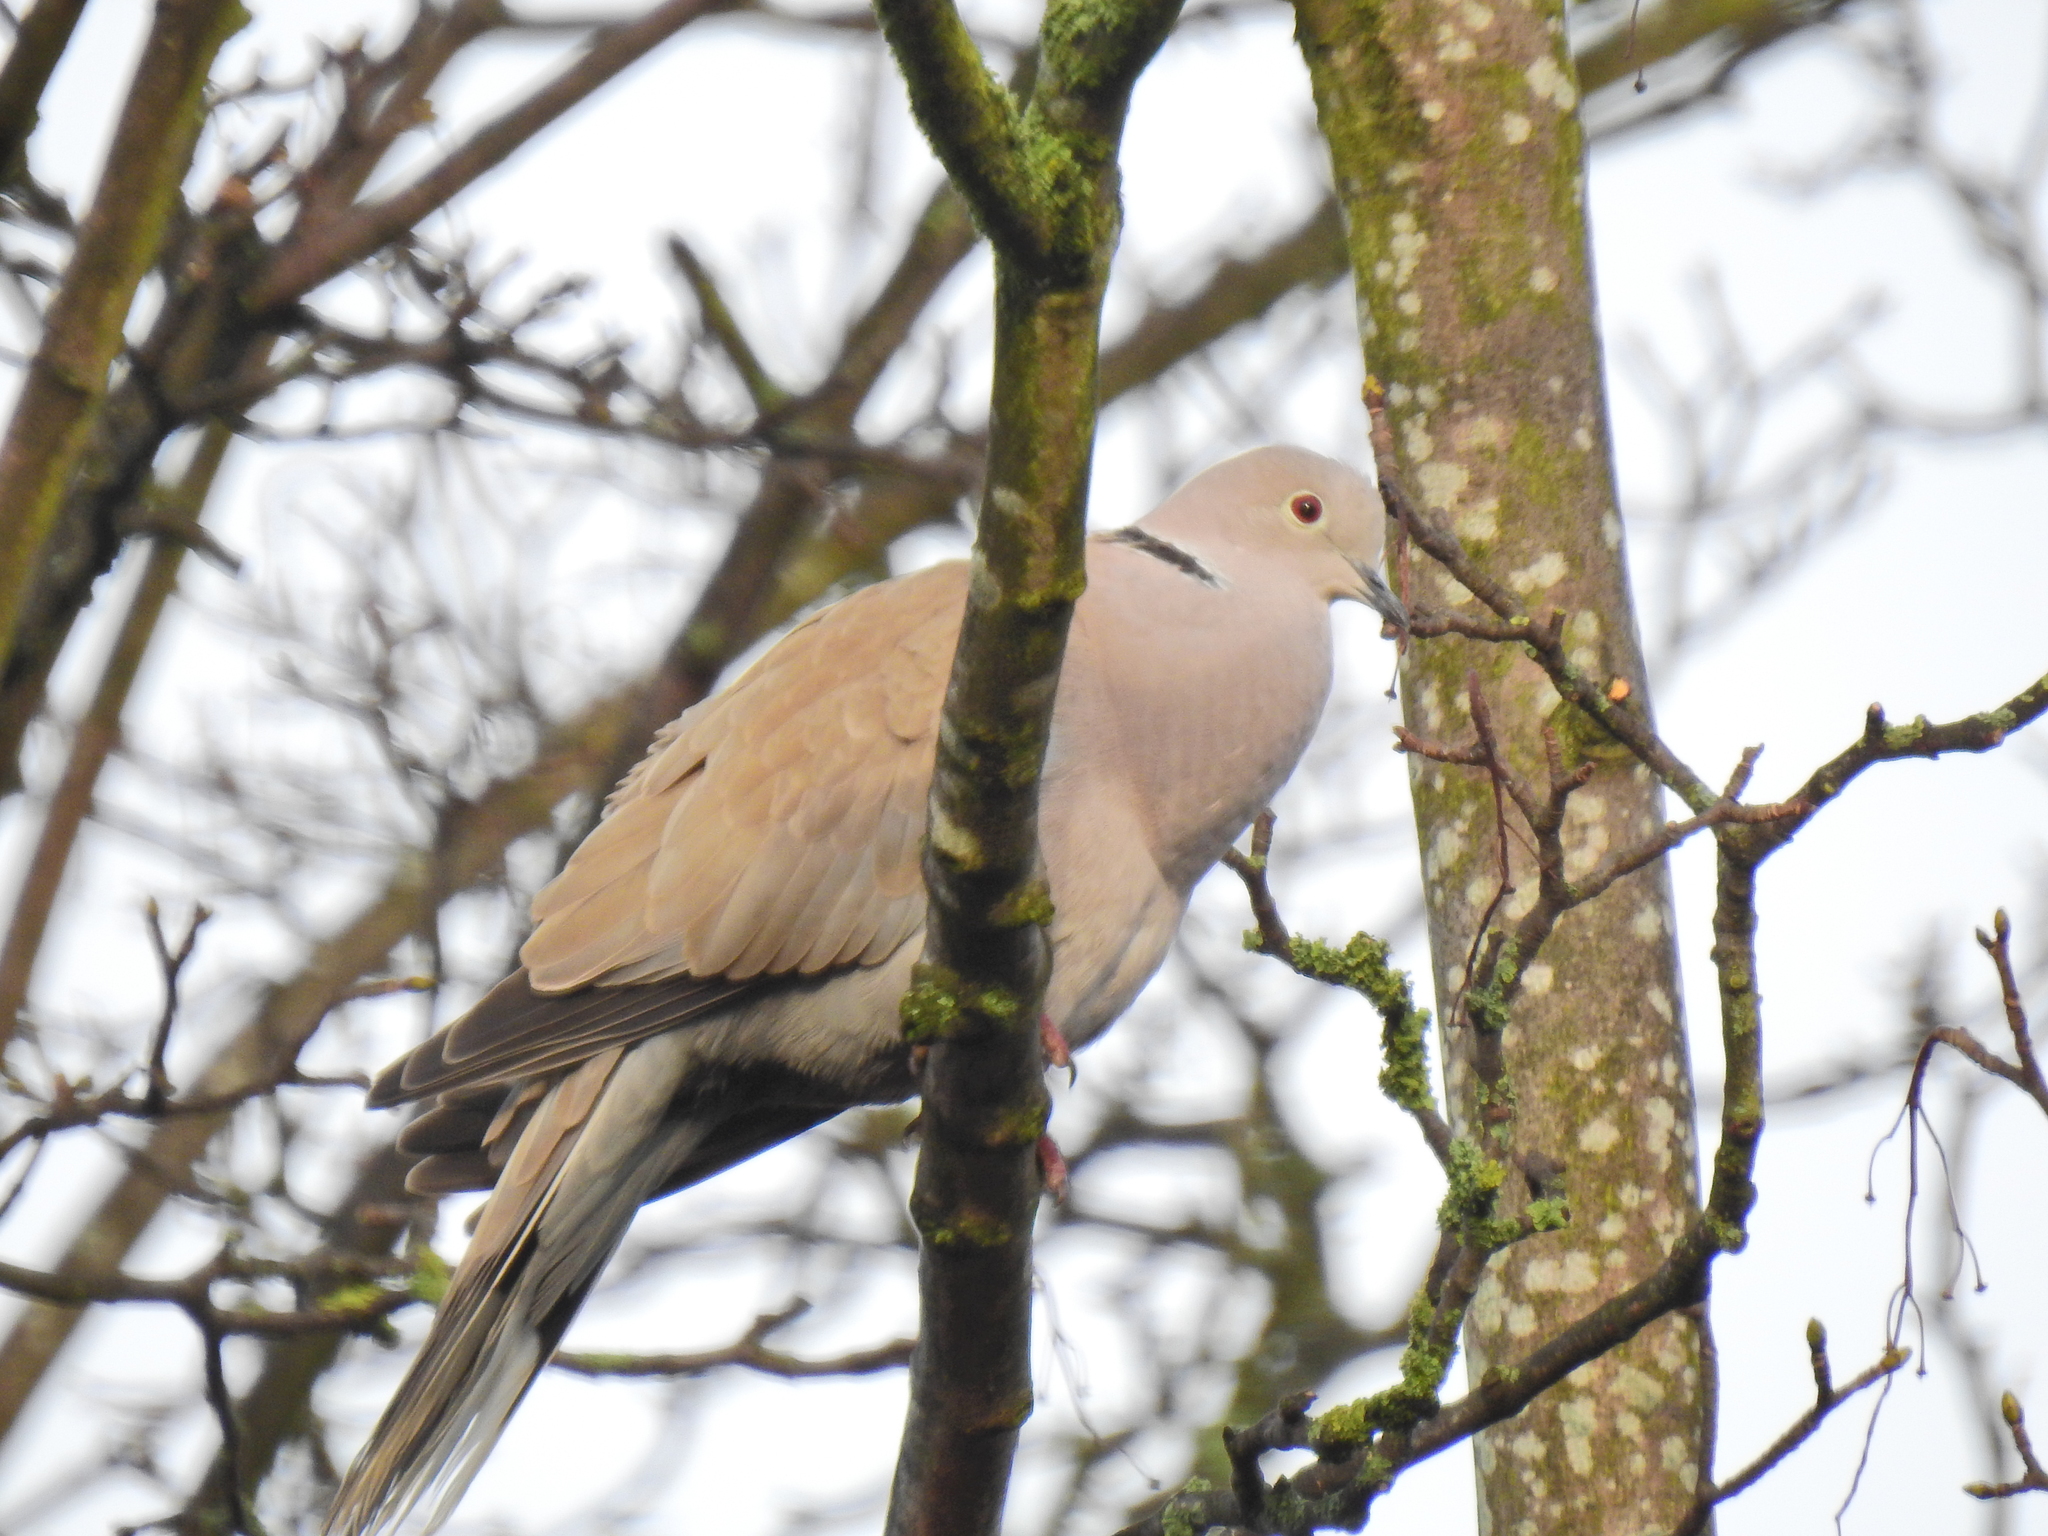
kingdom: Animalia
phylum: Chordata
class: Aves
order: Columbiformes
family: Columbidae
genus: Streptopelia
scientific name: Streptopelia decaocto
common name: Eurasian collared dove
